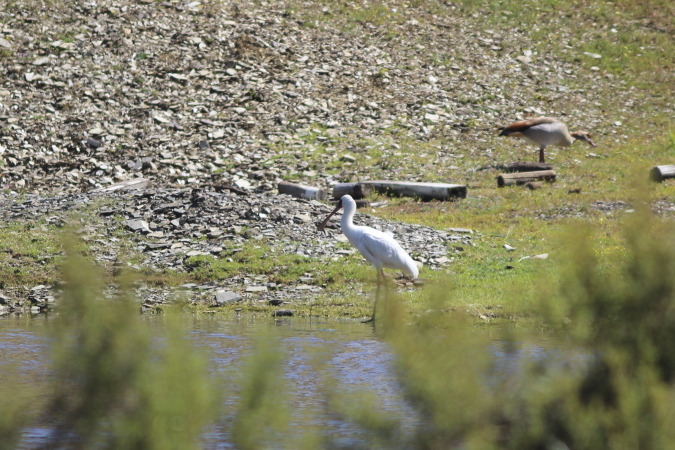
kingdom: Animalia
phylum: Chordata
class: Aves
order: Pelecaniformes
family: Threskiornithidae
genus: Platalea
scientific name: Platalea alba
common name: African spoonbill
